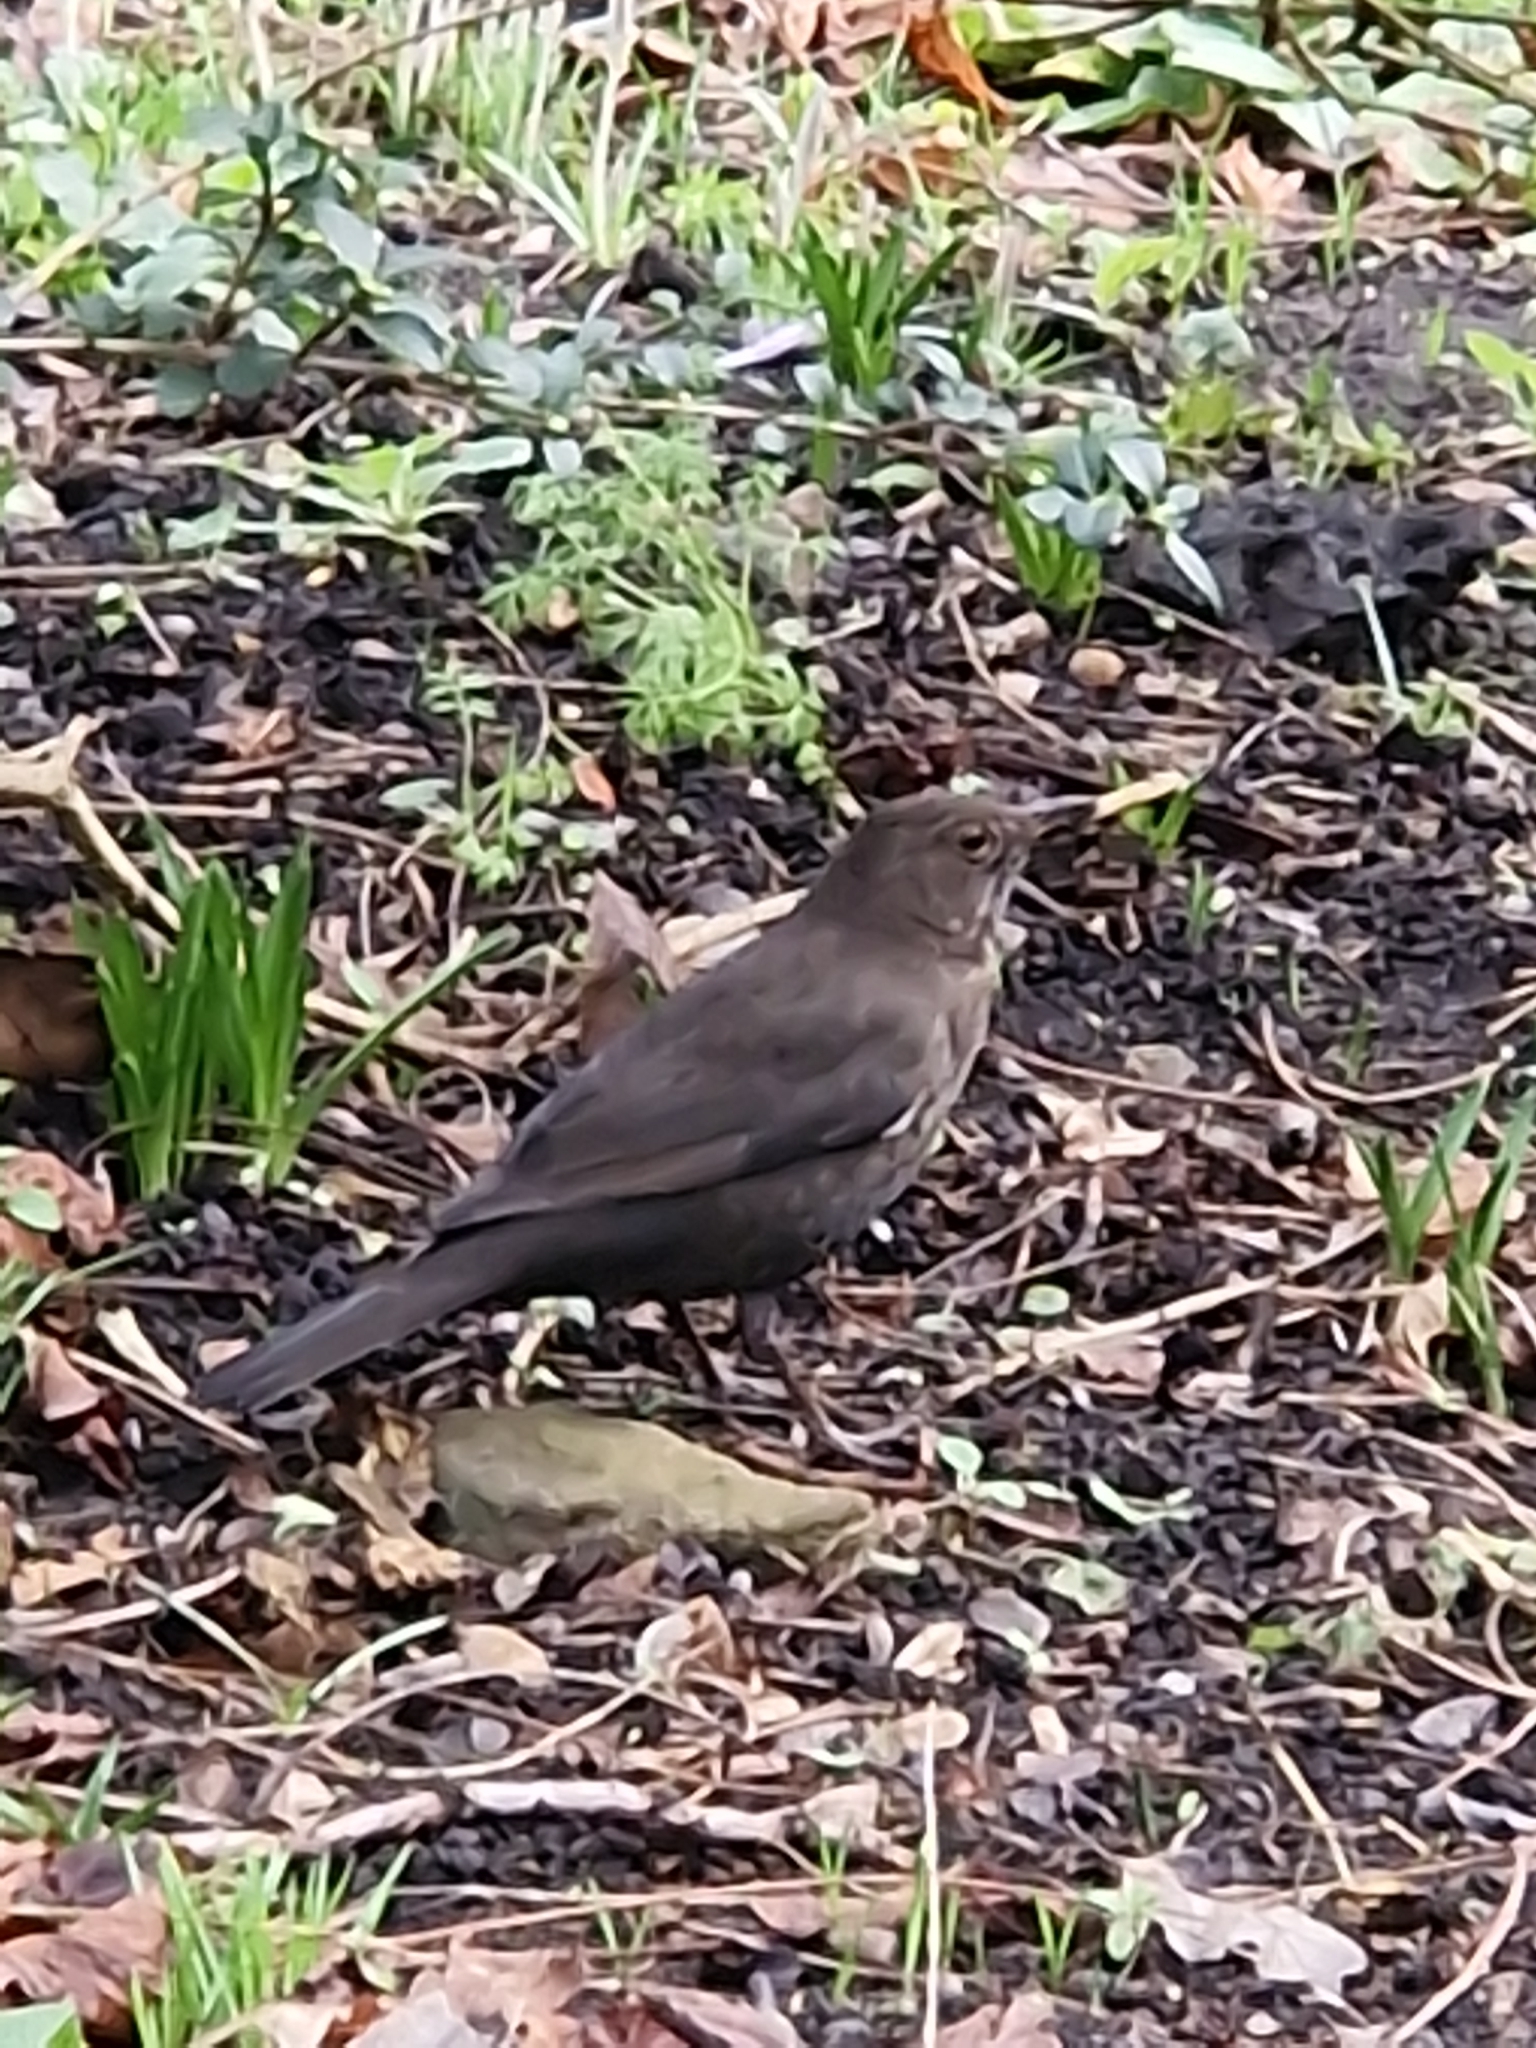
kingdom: Animalia
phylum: Chordata
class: Aves
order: Passeriformes
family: Turdidae
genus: Turdus
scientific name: Turdus merula
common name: Common blackbird
